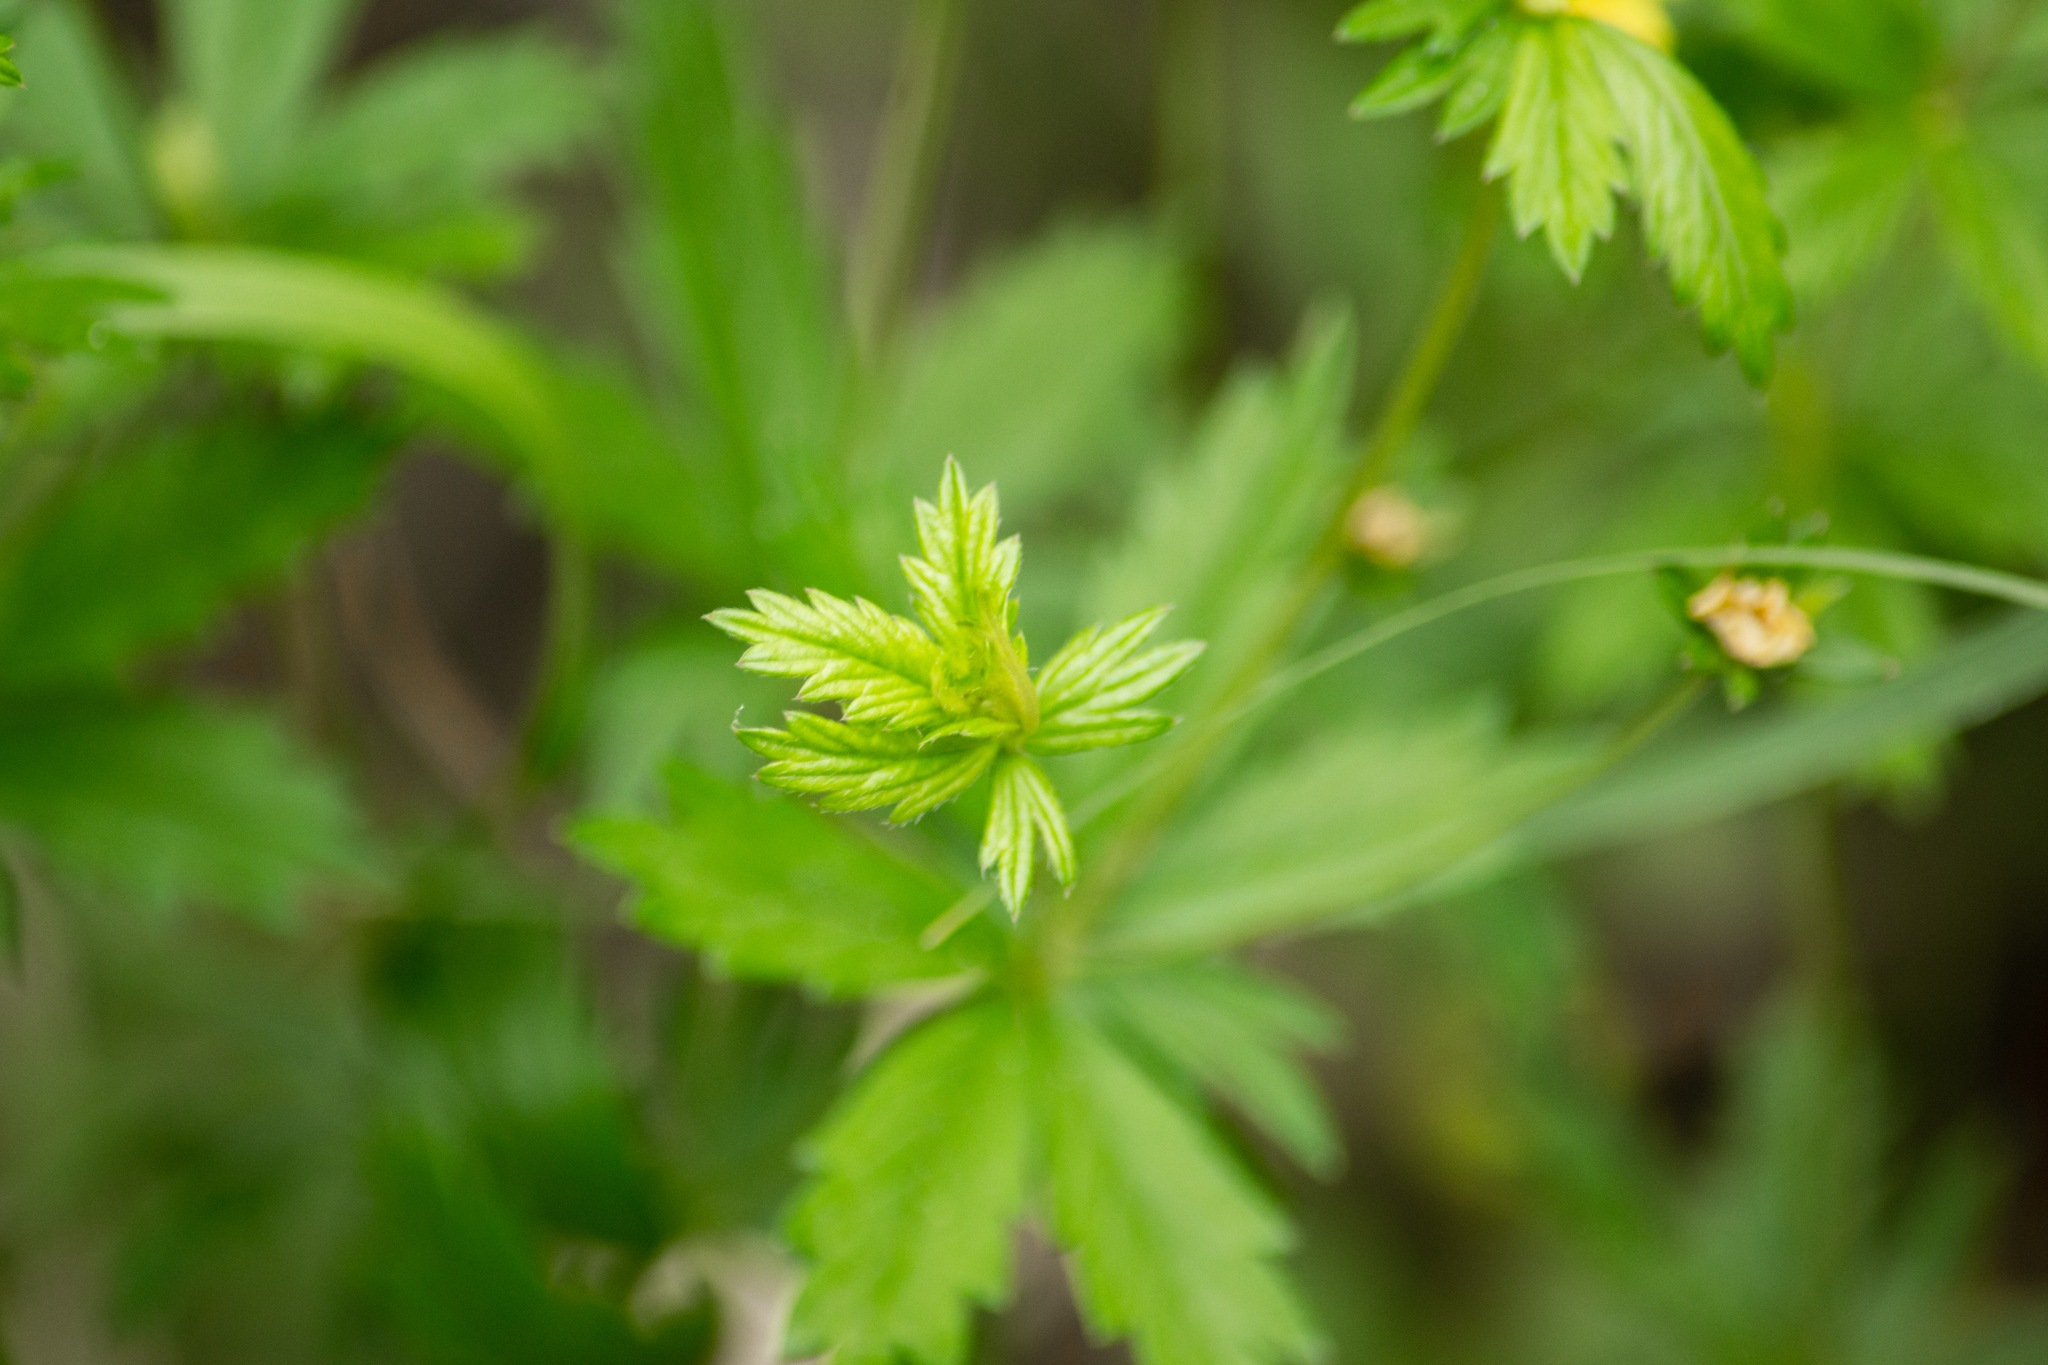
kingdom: Plantae
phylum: Tracheophyta
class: Magnoliopsida
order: Rosales
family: Rosaceae
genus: Potentilla
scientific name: Potentilla erecta
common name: Tormentil
